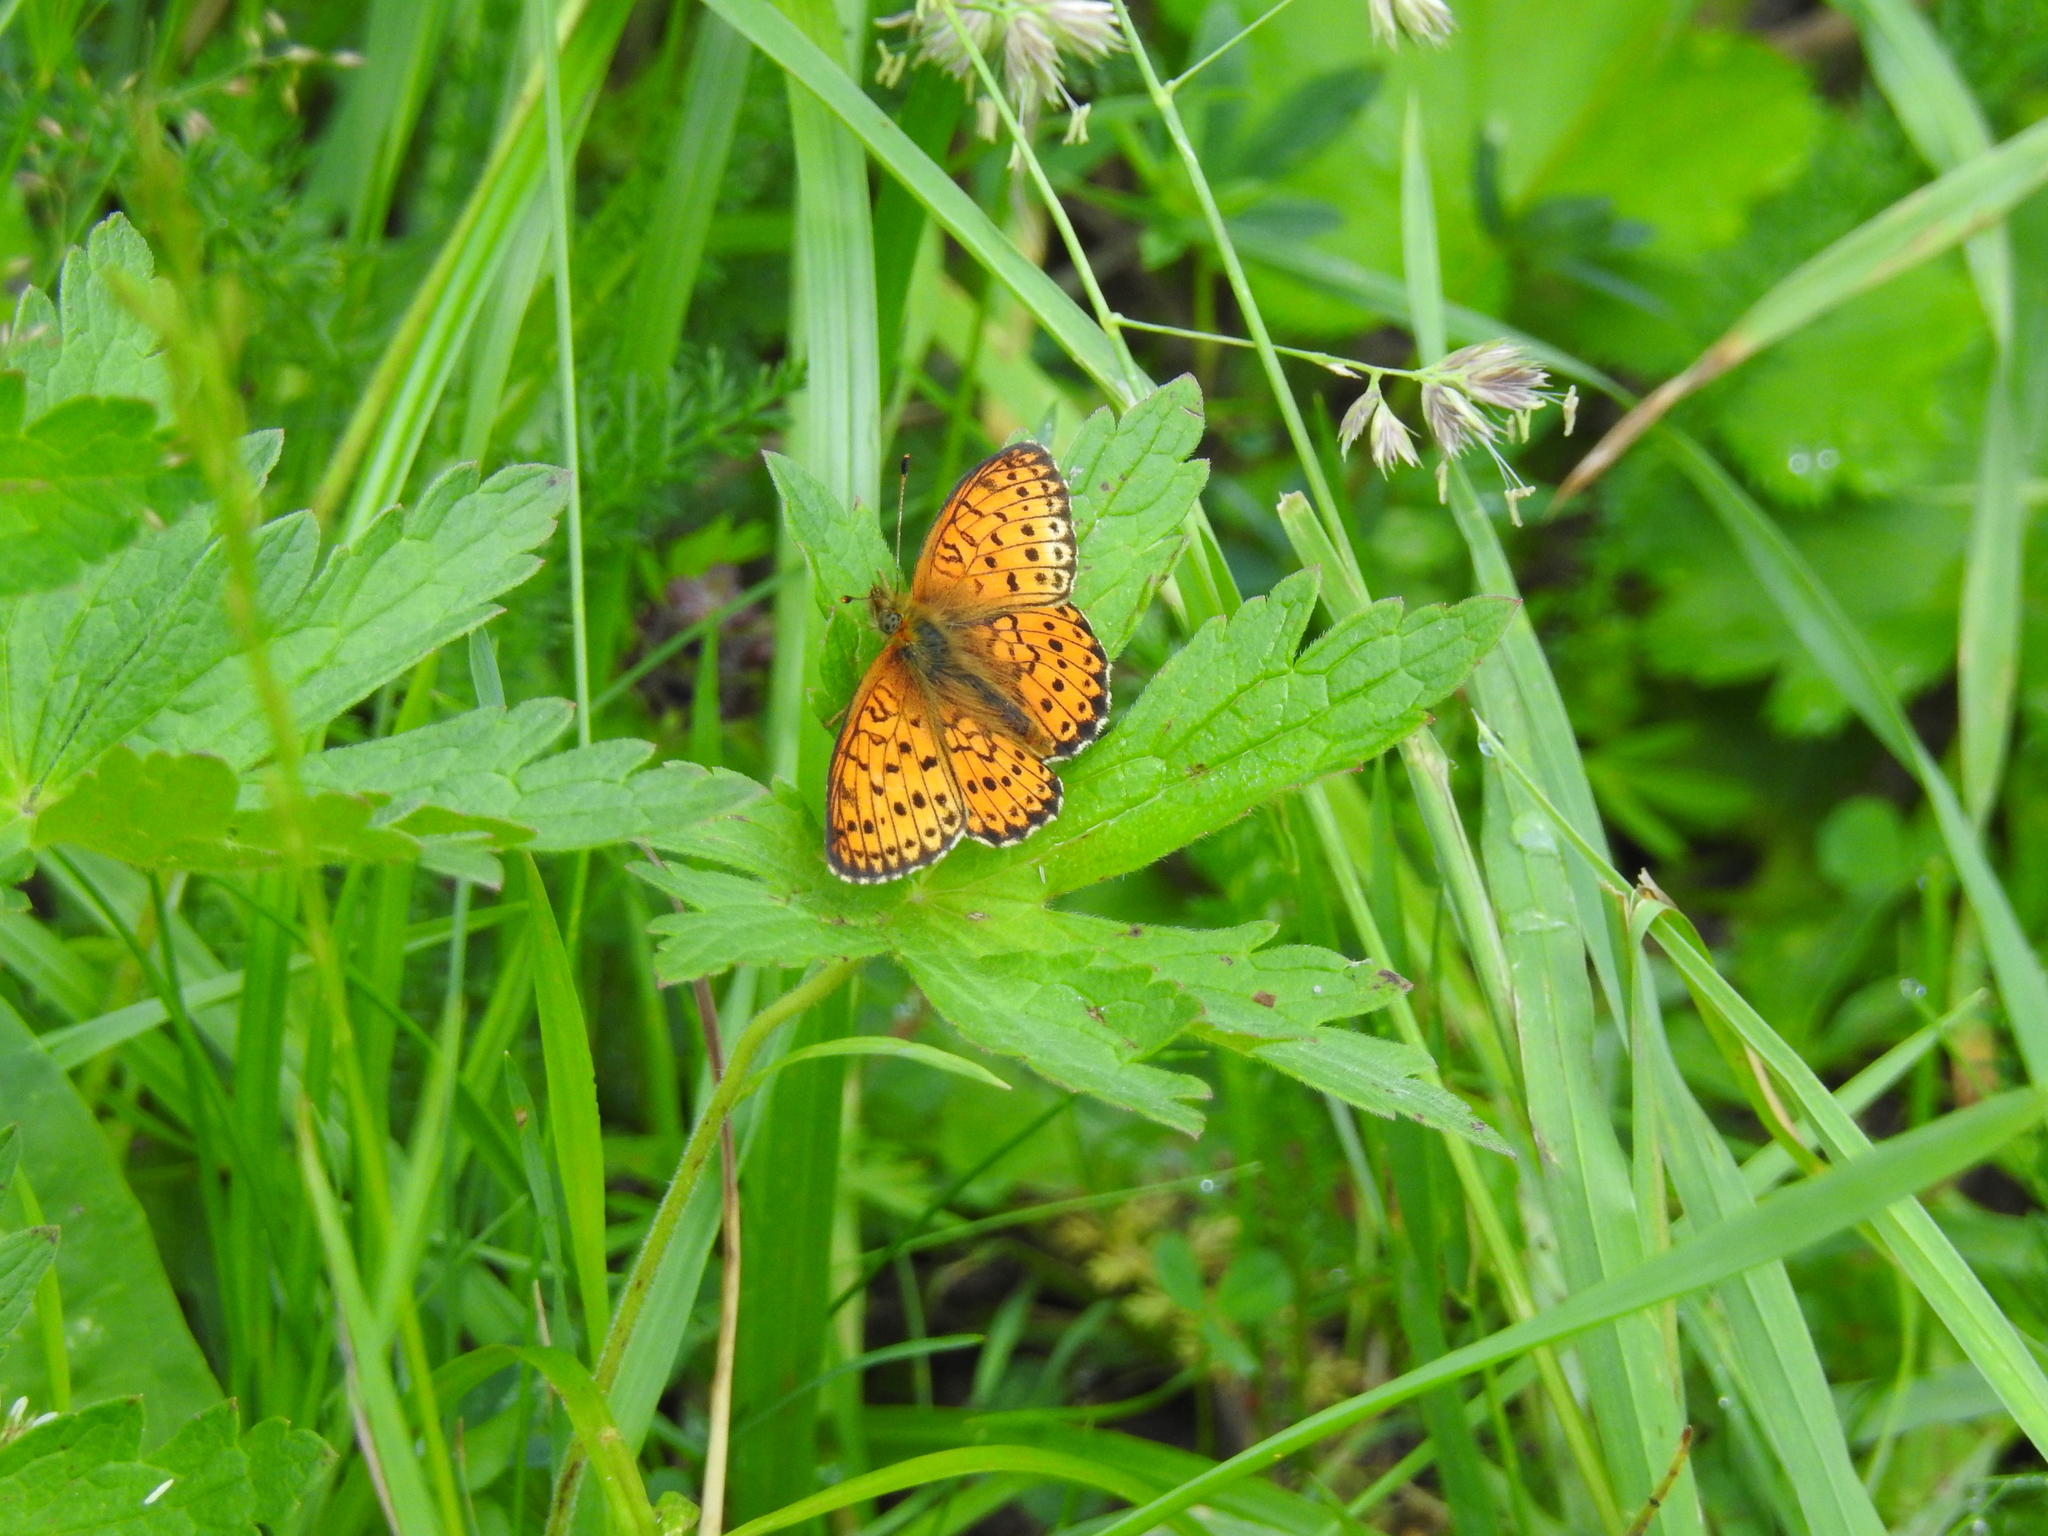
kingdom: Animalia
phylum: Arthropoda
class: Insecta
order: Lepidoptera
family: Nymphalidae
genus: Brenthis
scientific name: Brenthis ino
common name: Lesser marbled fritillary
